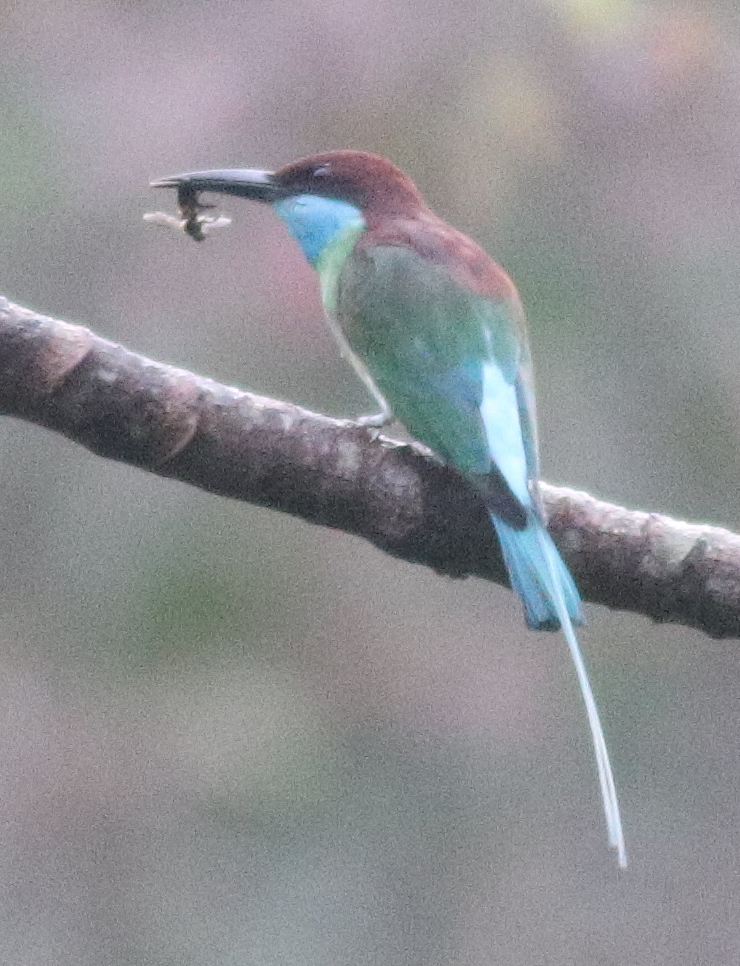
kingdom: Animalia
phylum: Chordata
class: Aves
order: Coraciiformes
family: Meropidae
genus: Merops
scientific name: Merops viridis
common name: Blue-throated bee-eater
